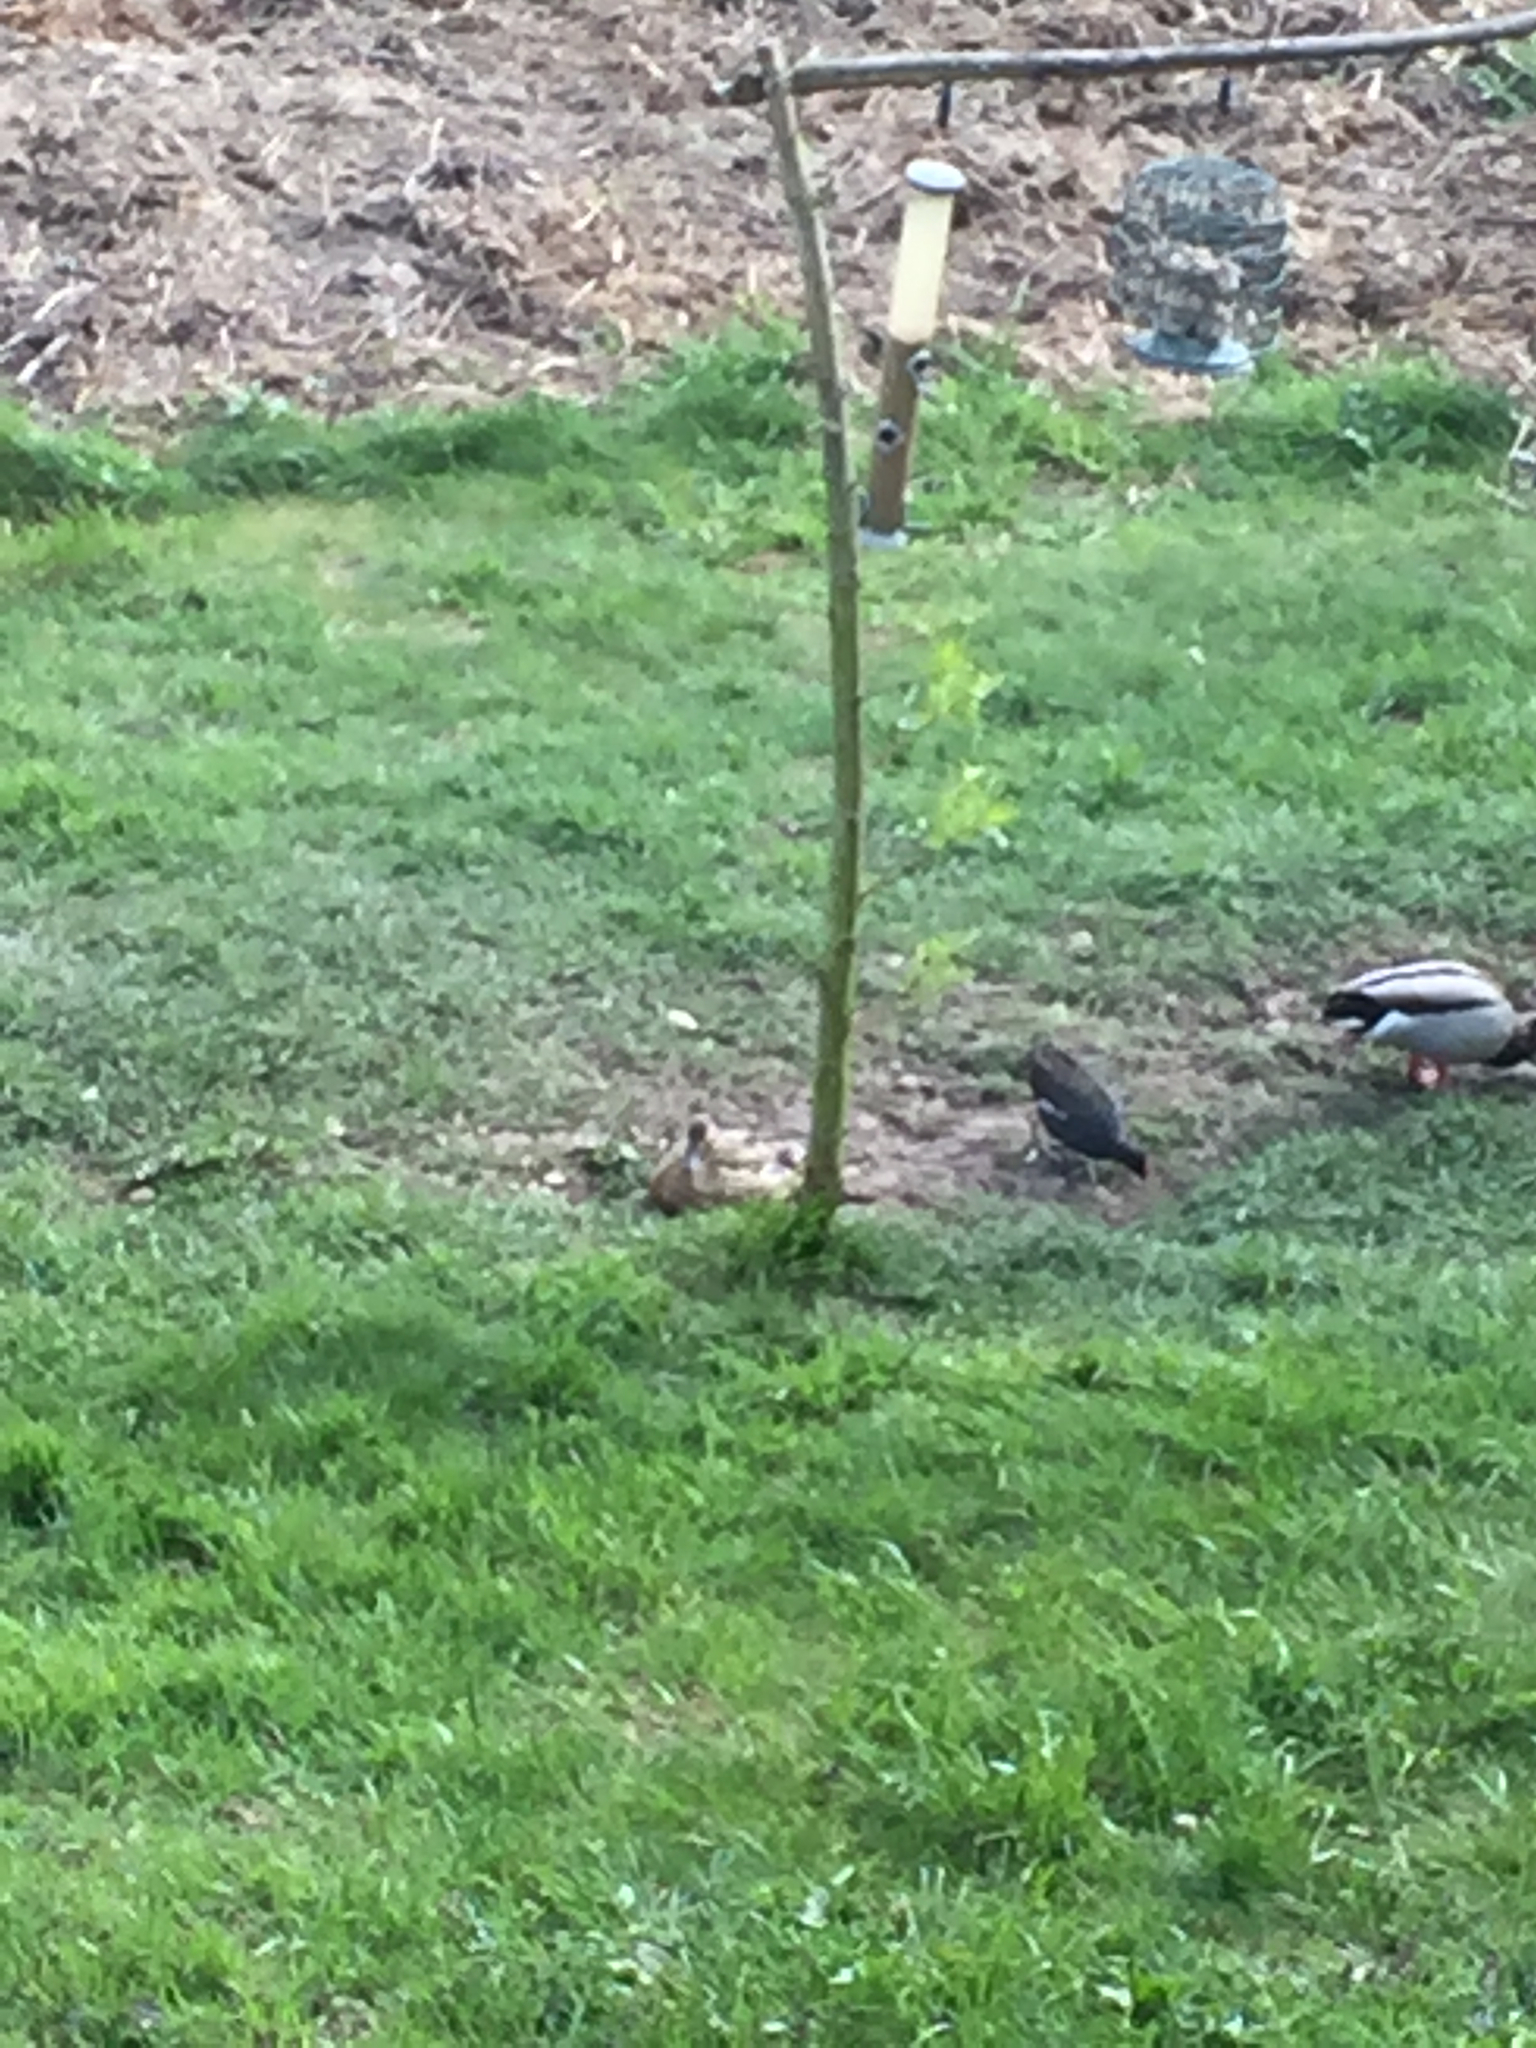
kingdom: Animalia
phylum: Chordata
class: Aves
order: Gruiformes
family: Rallidae
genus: Gallinula
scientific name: Gallinula chloropus
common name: Common moorhen
